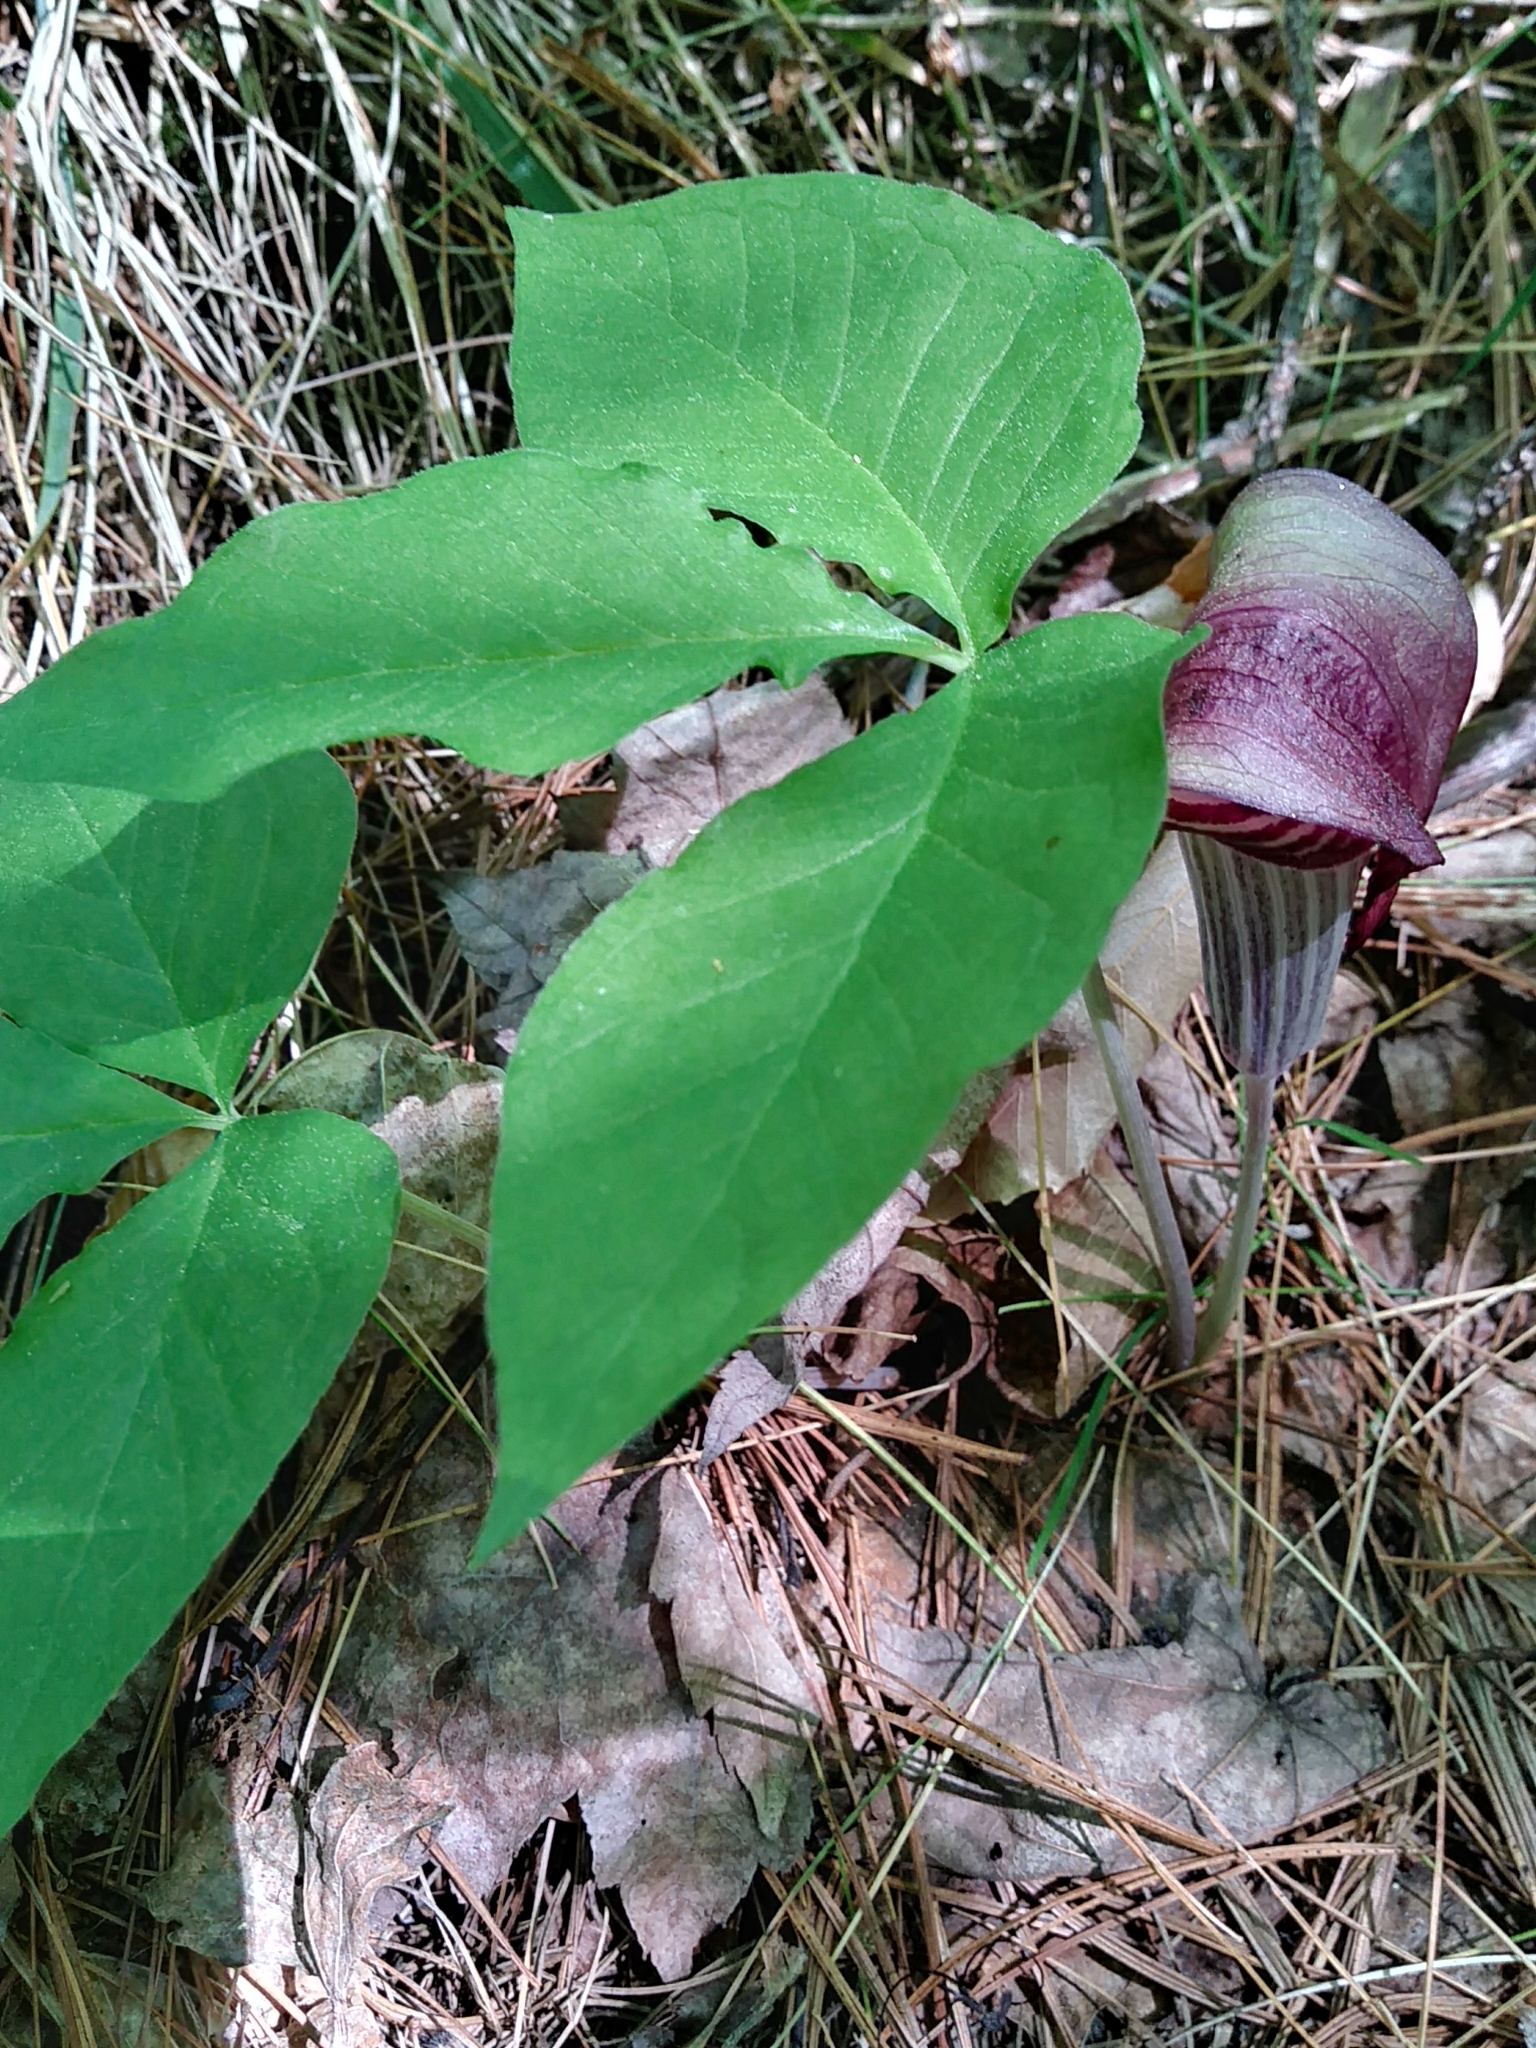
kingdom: Plantae
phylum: Tracheophyta
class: Liliopsida
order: Alismatales
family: Araceae
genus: Arisaema
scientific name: Arisaema triphyllum
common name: Jack-in-the-pulpit
